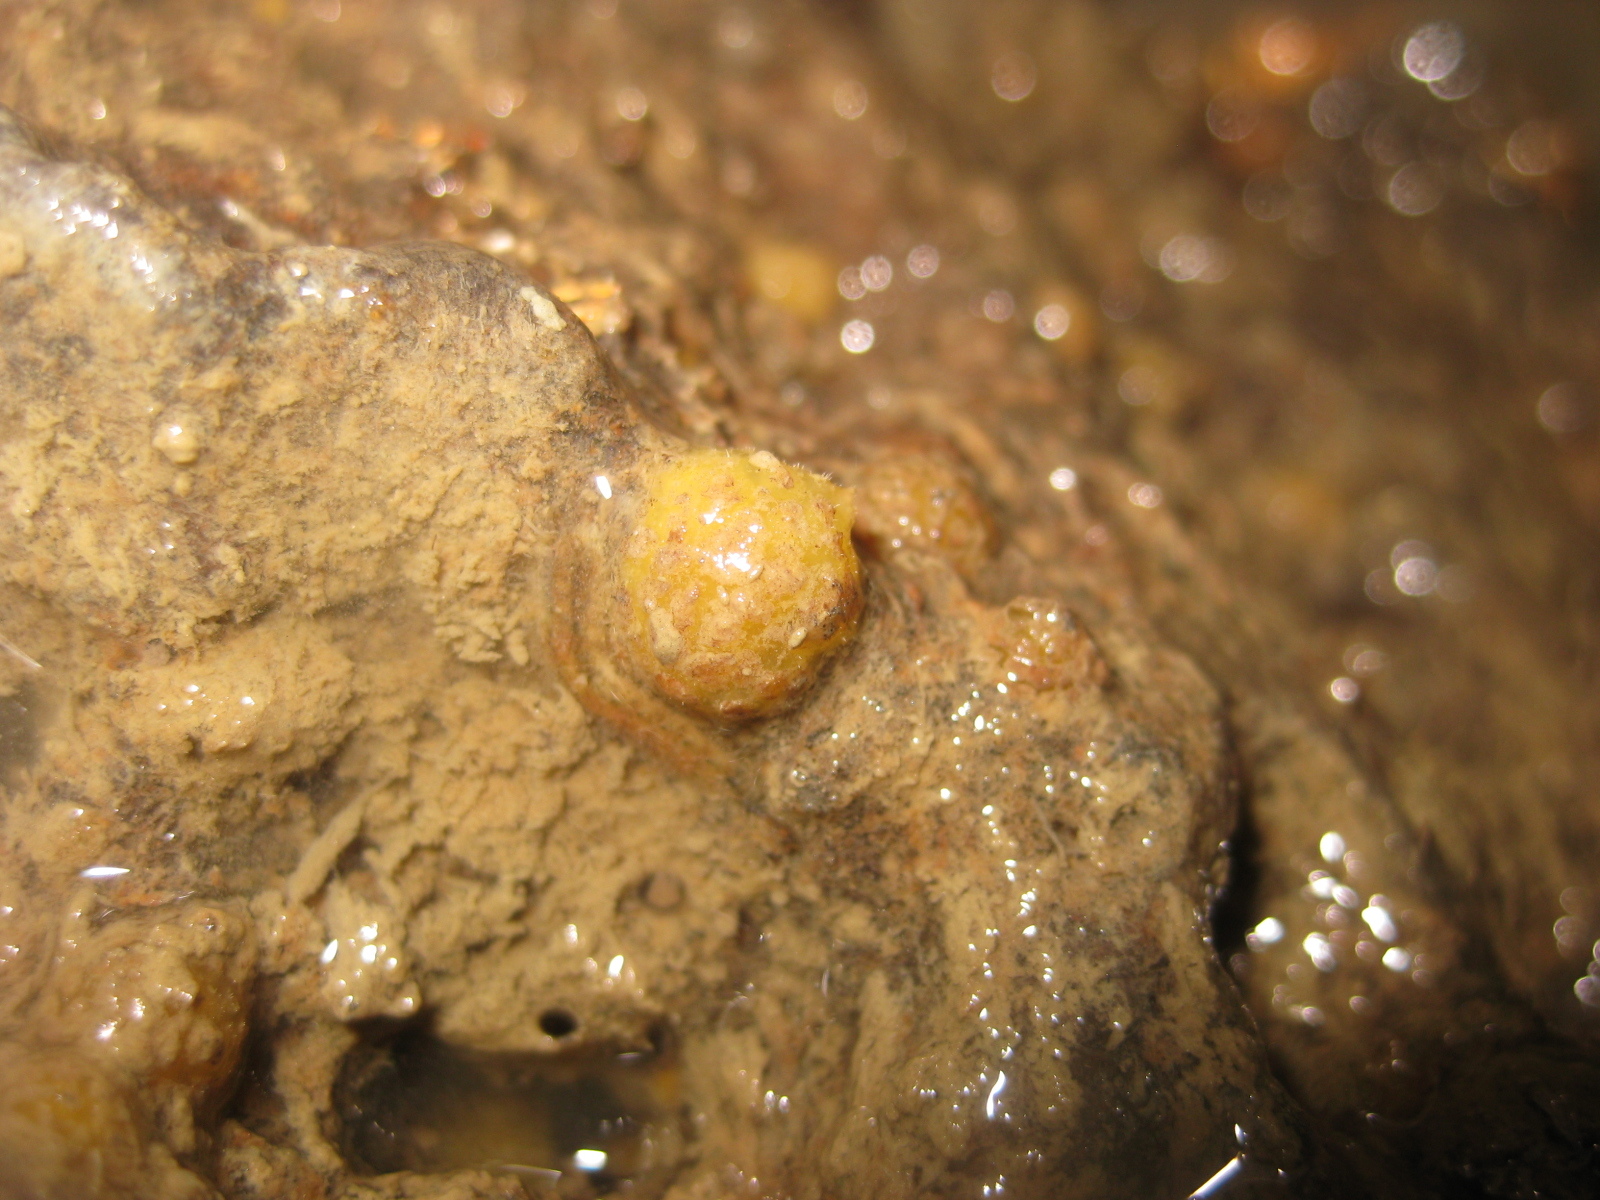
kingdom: Animalia
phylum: Porifera
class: Demospongiae
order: Tethyida
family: Tethyidae
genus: Tethya
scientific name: Tethya stolonifera
